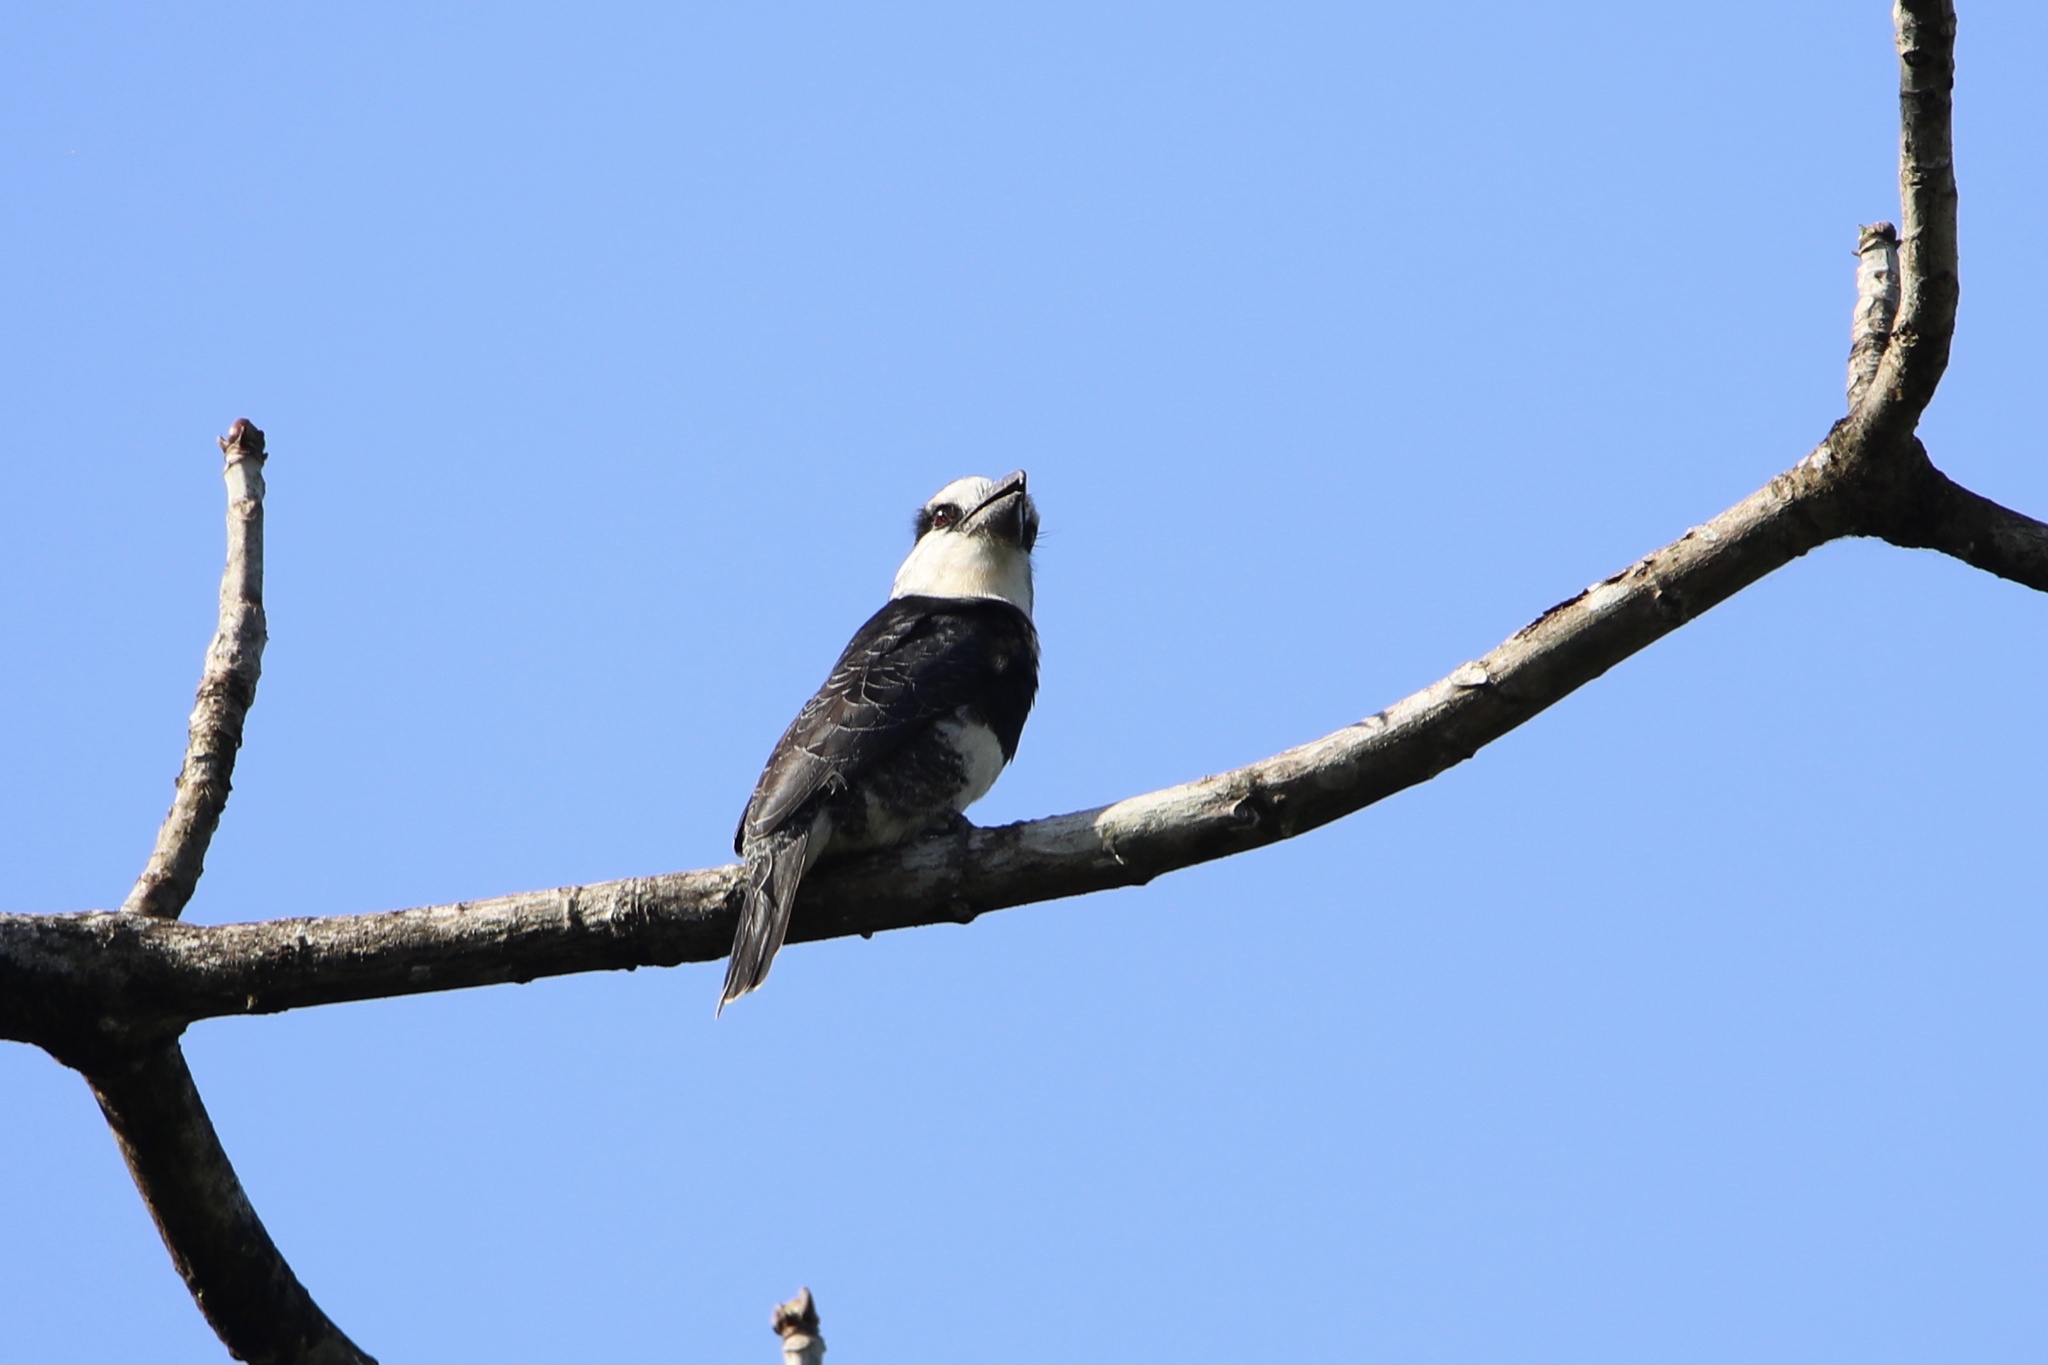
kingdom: Animalia
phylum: Chordata
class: Aves
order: Piciformes
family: Bucconidae
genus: Notharchus
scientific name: Notharchus hyperrhynchus
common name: White-necked puffbird
